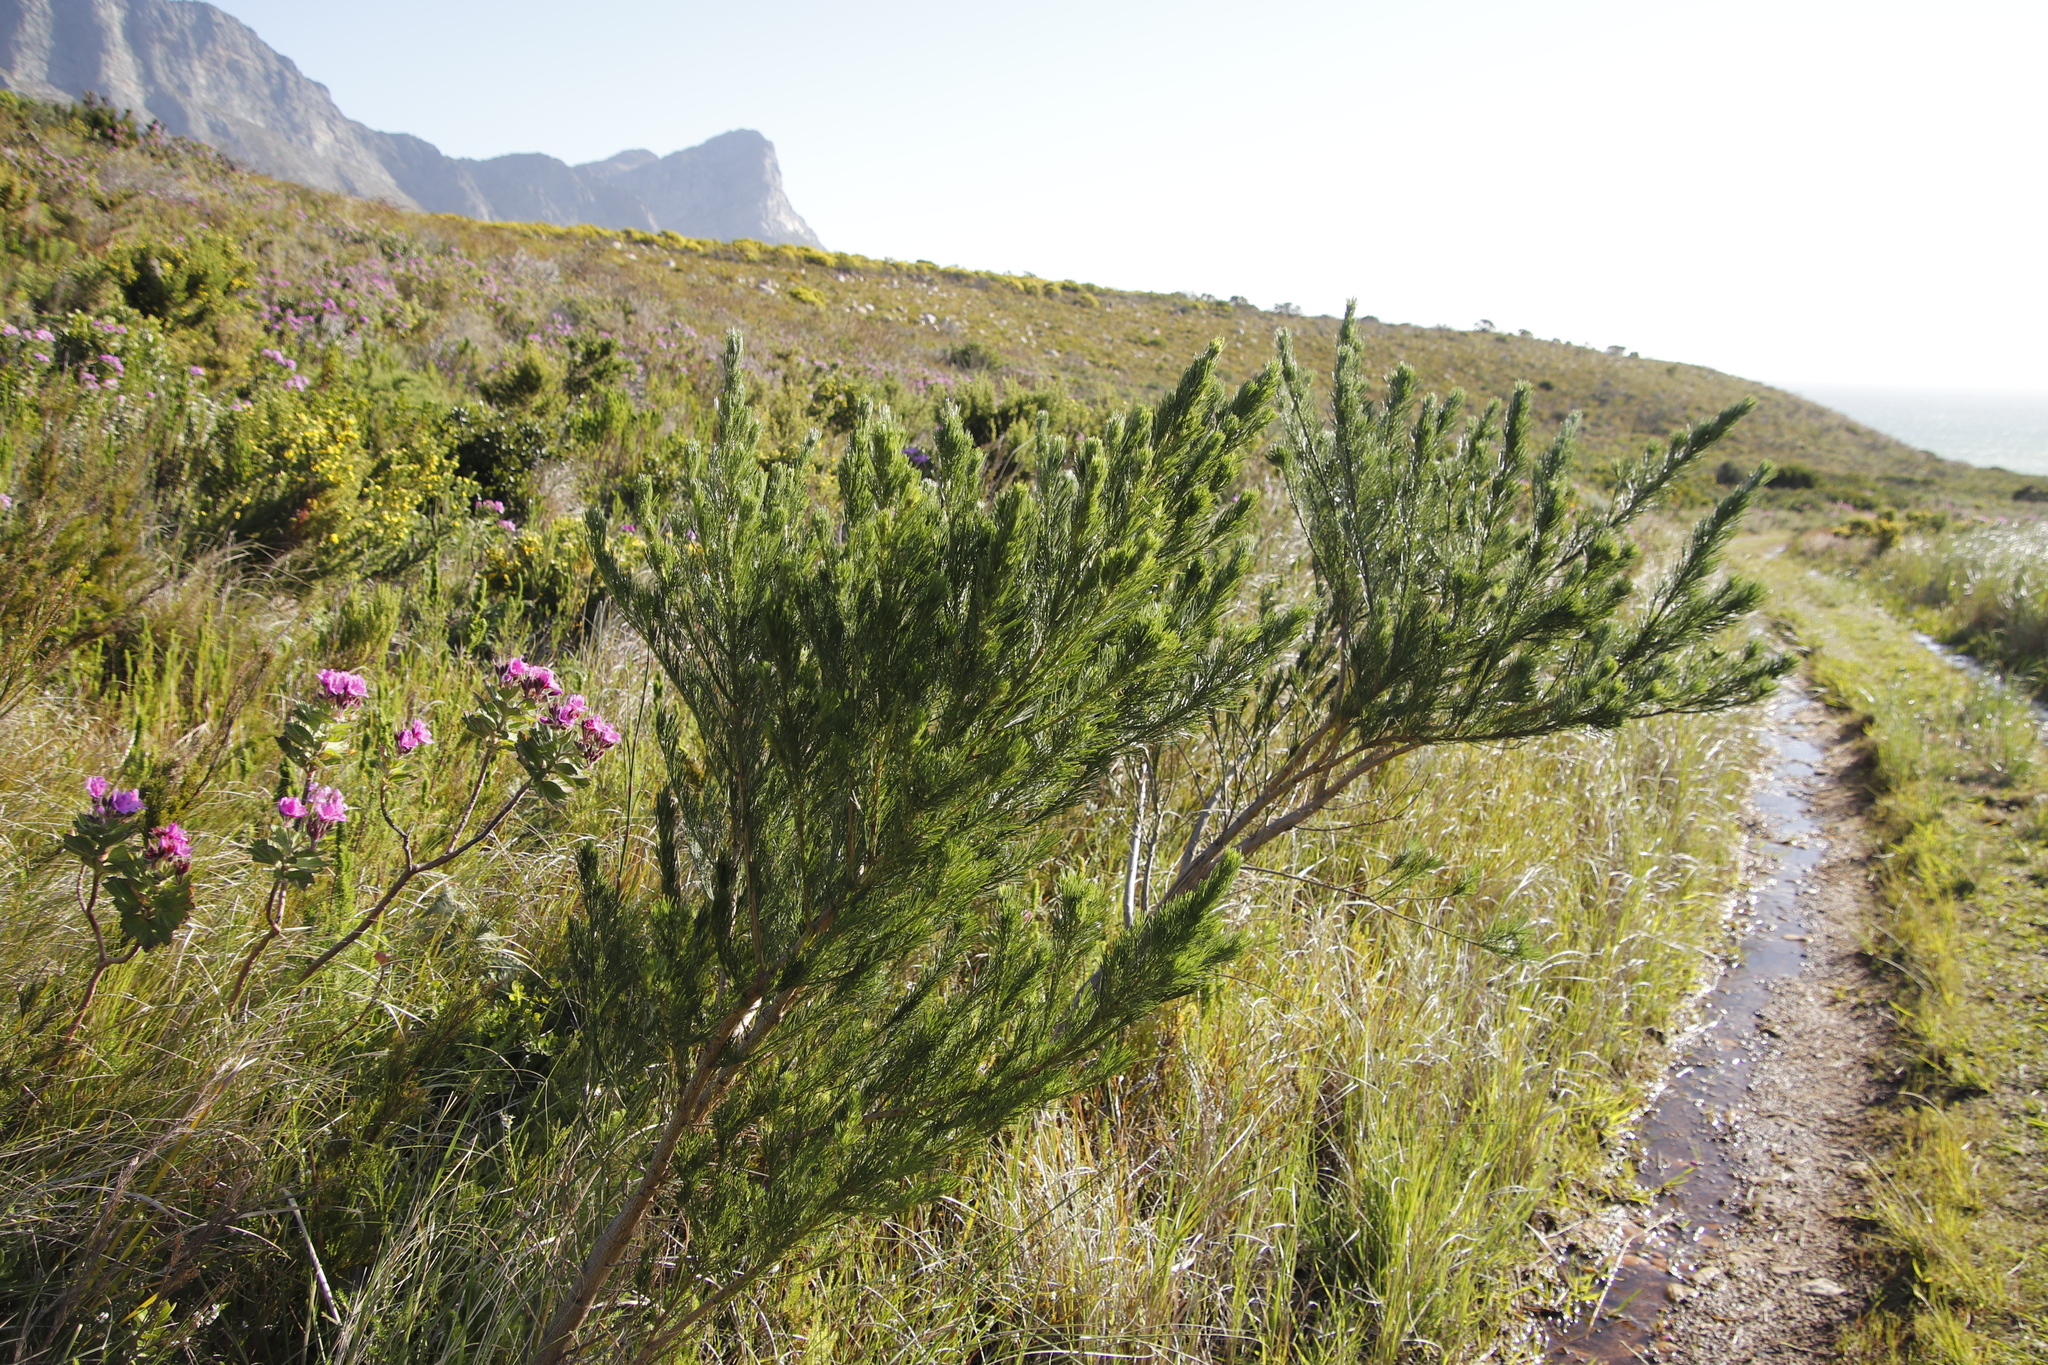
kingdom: Plantae
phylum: Tracheophyta
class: Magnoliopsida
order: Fabales
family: Fabaceae
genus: Psoralea
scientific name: Psoralea ivumba
